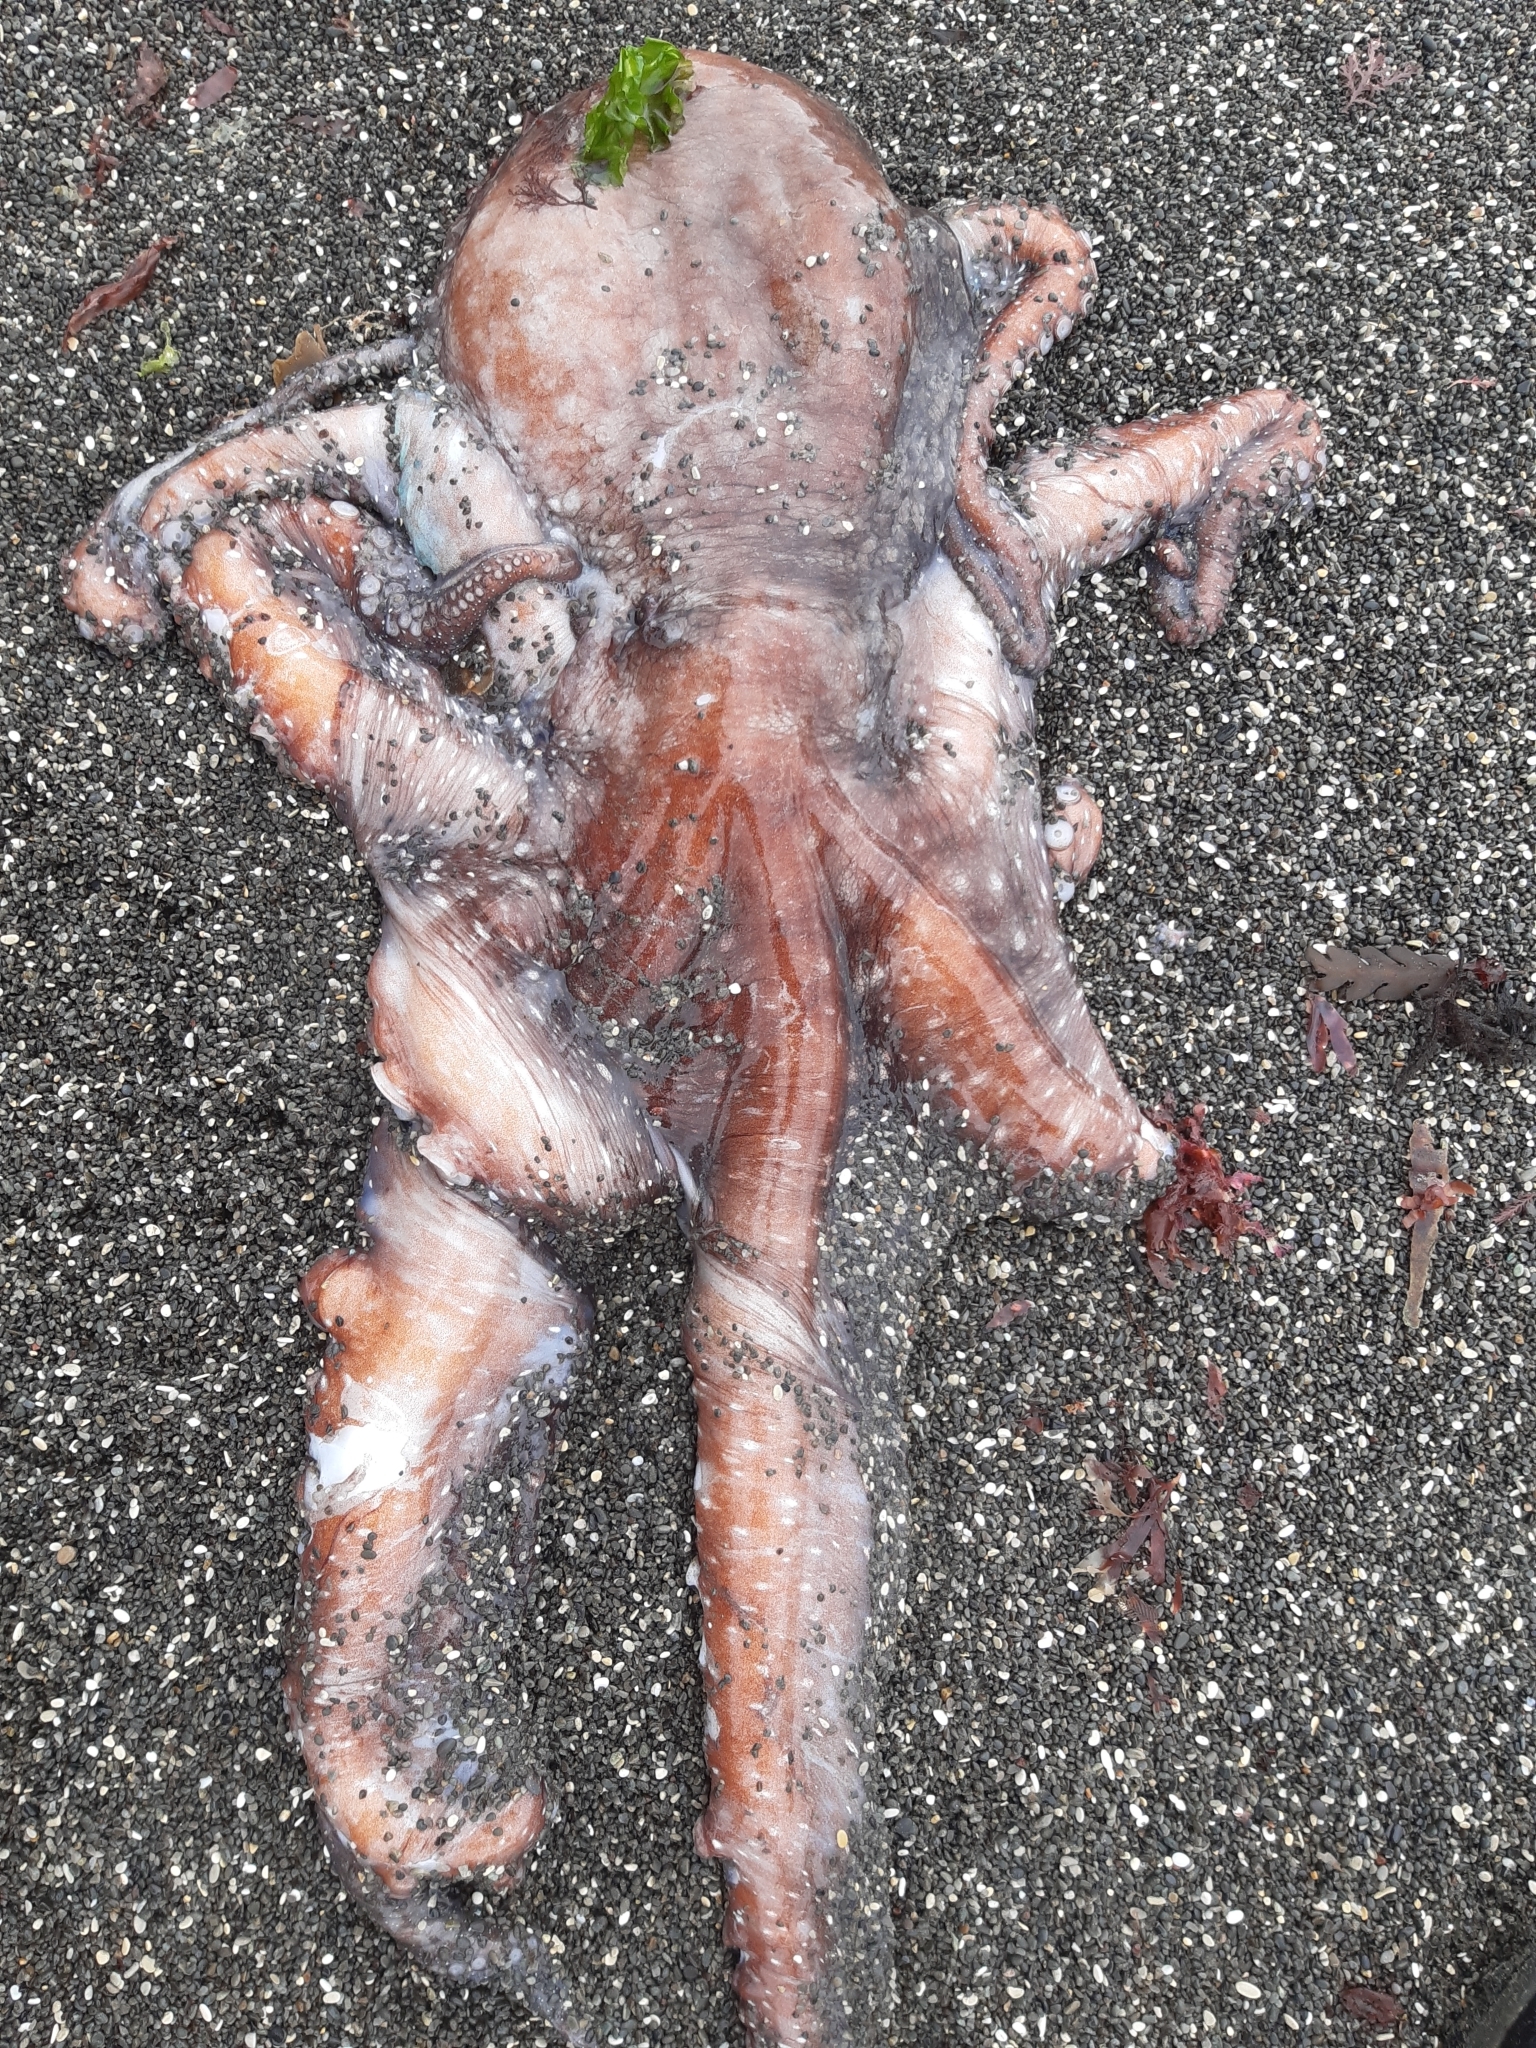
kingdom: Animalia
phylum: Mollusca
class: Cephalopoda
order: Octopoda
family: Octopodidae
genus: Macroctopus
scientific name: Macroctopus maorum
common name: Maori octopus
